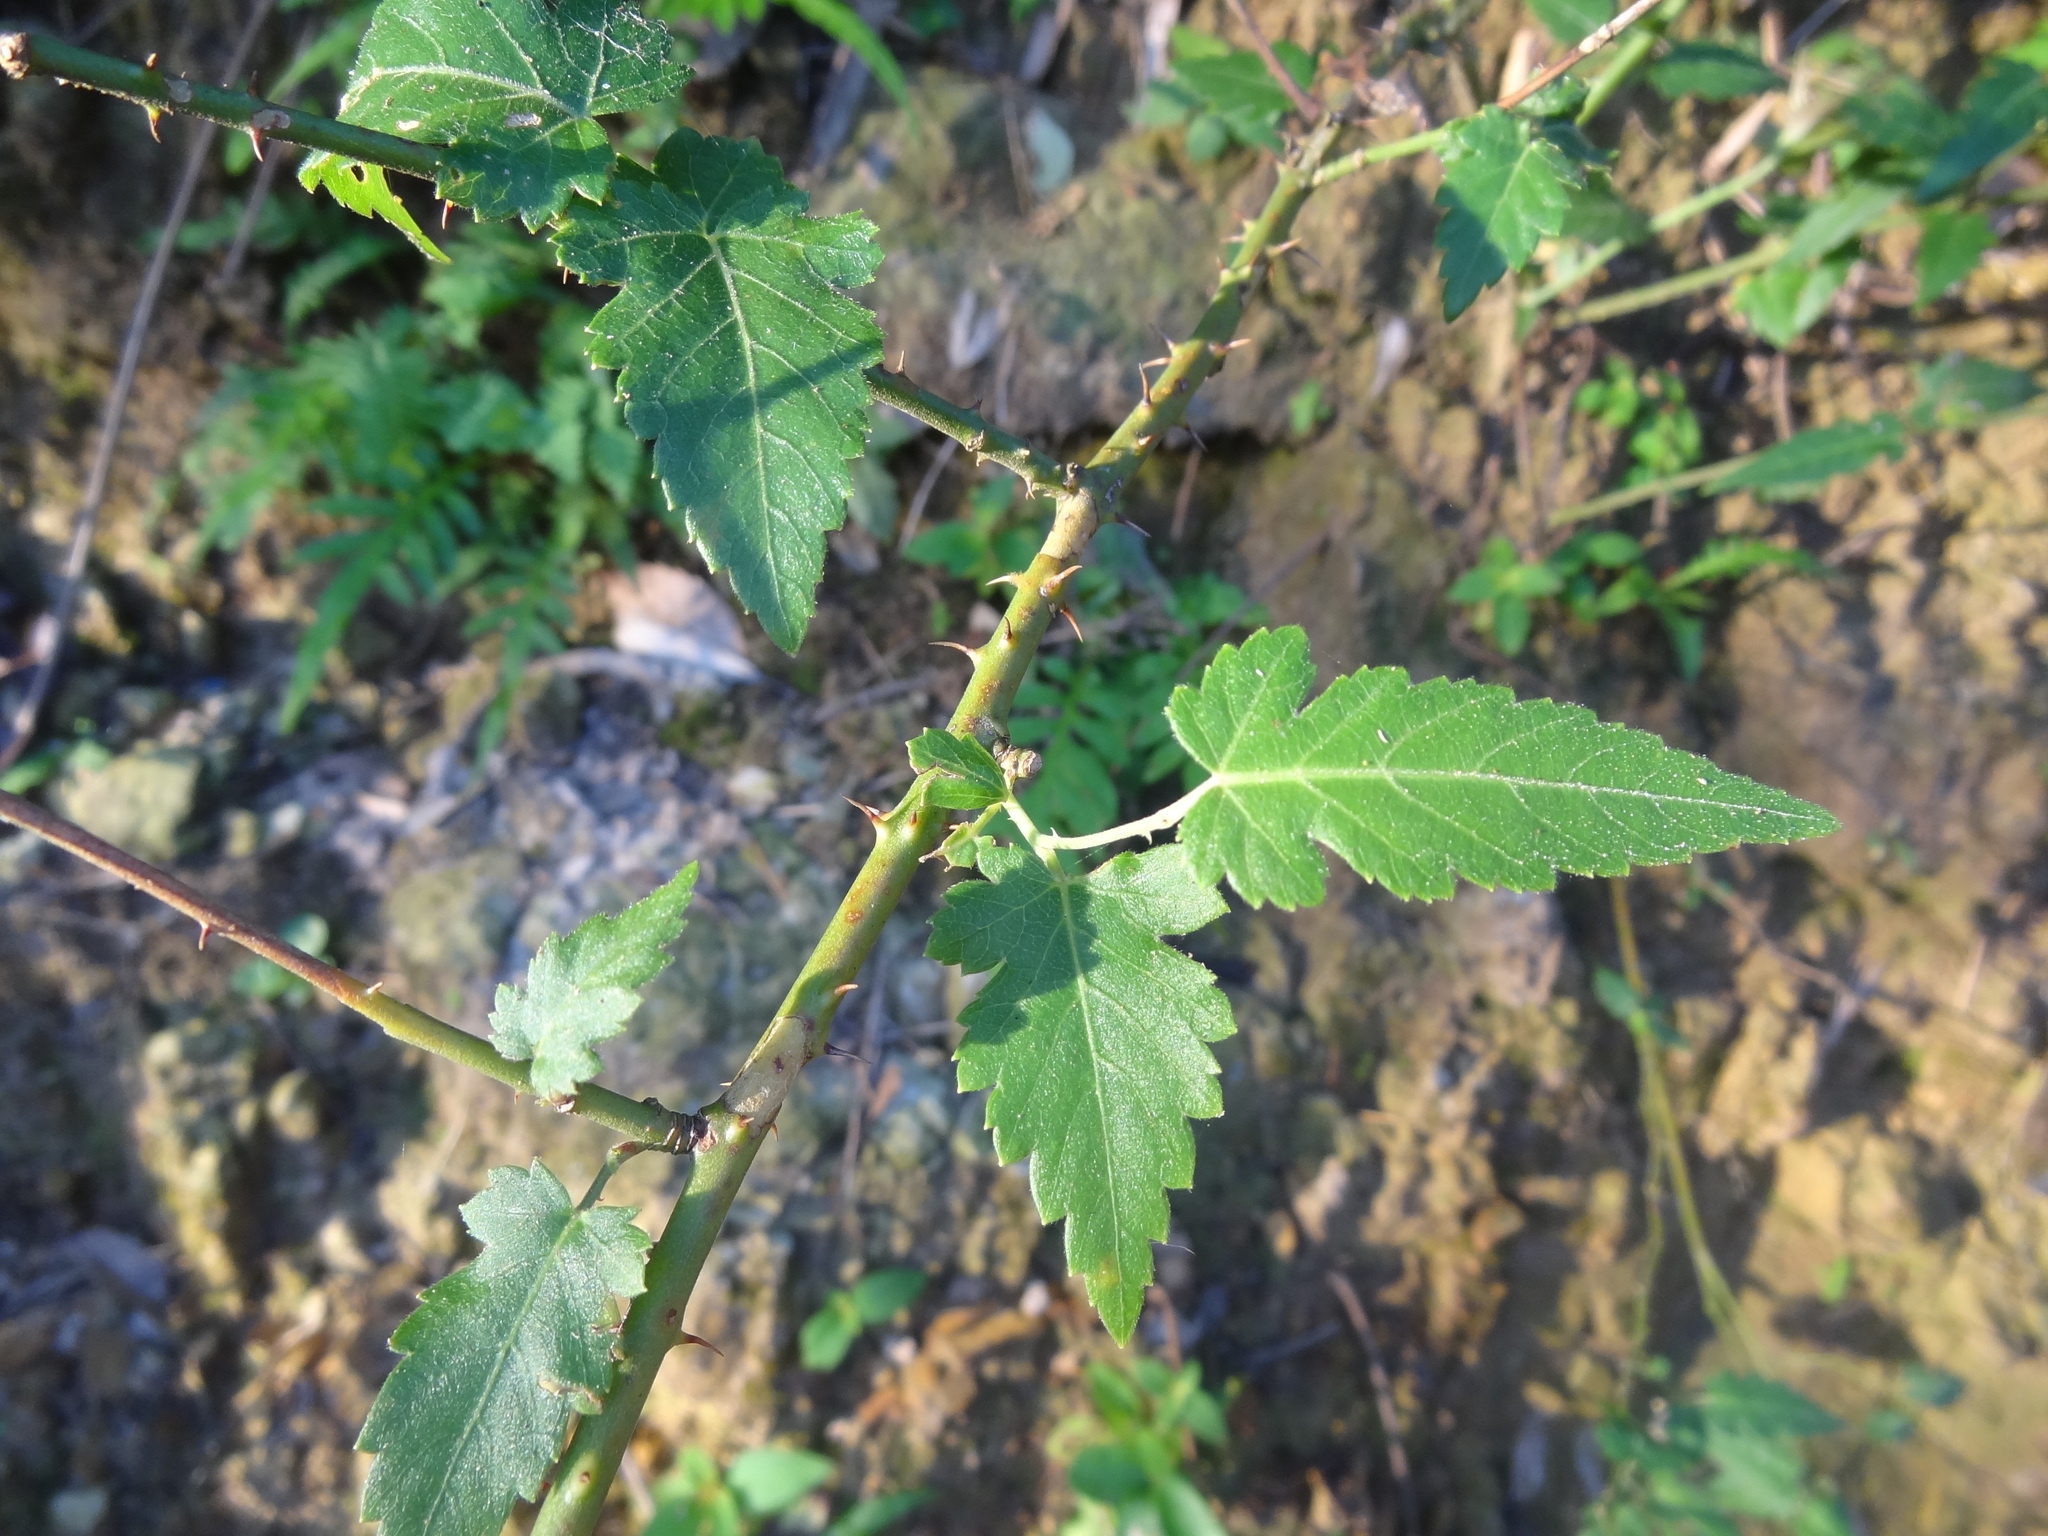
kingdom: Plantae
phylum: Tracheophyta
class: Magnoliopsida
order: Rosales
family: Rosaceae
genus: Rubus
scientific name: Rubus corchorifolius
